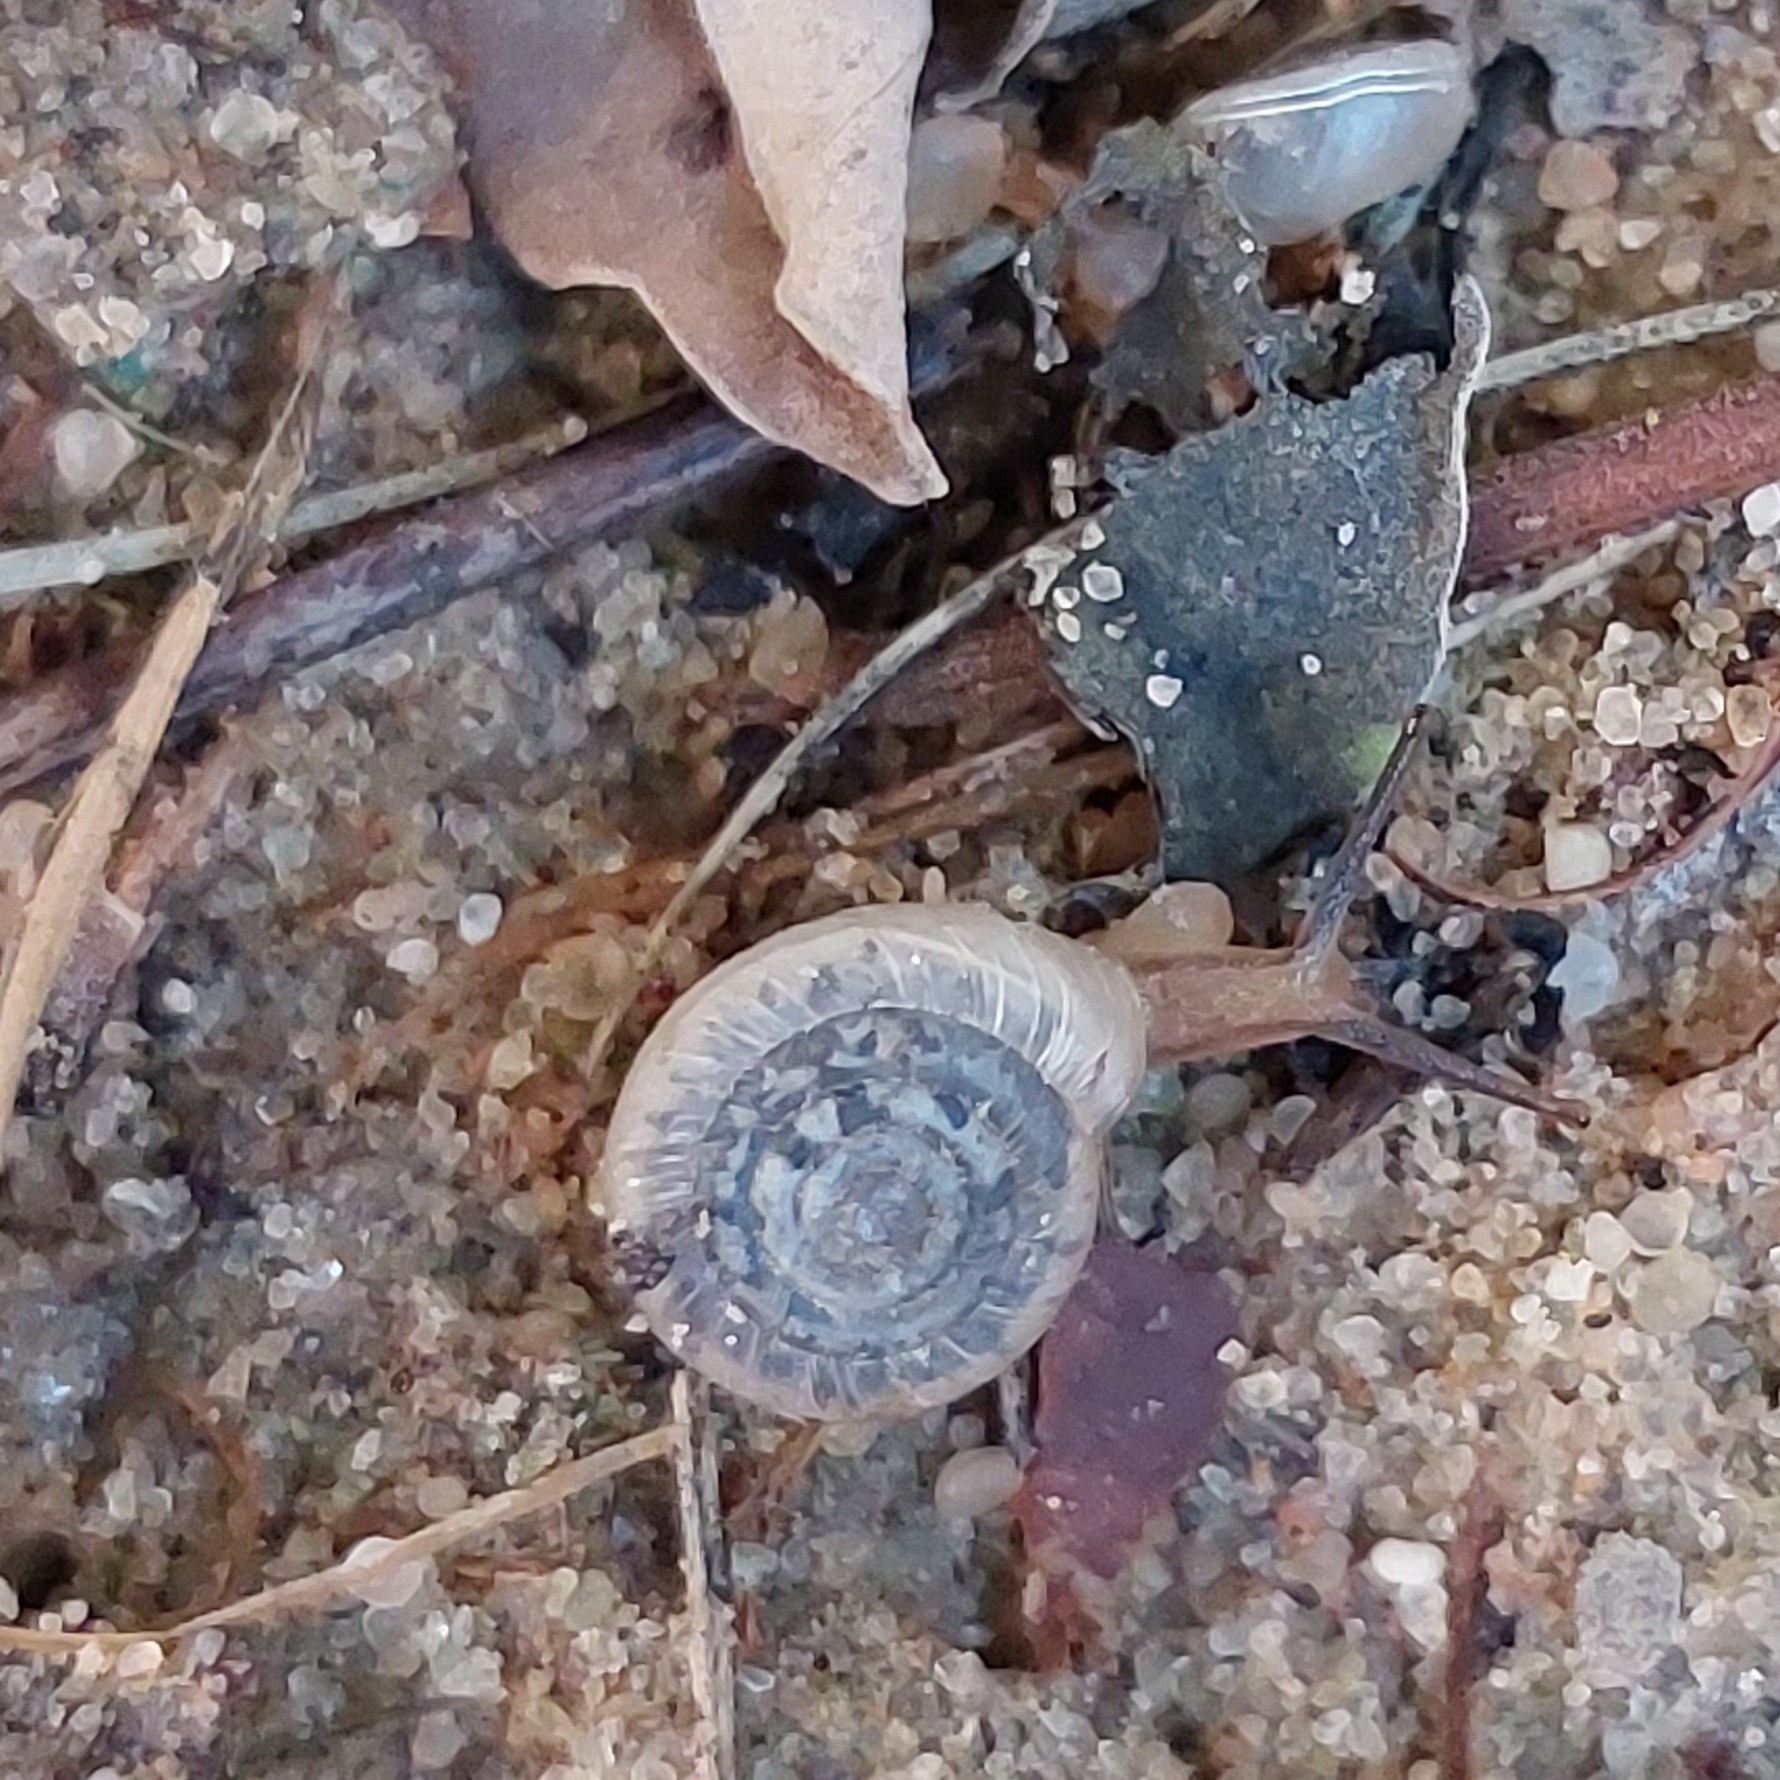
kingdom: Animalia
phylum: Mollusca
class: Gastropoda
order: Stylommatophora
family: Polygyridae
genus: Polygyra
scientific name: Polygyra cereolus
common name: Southern flatcone snail
